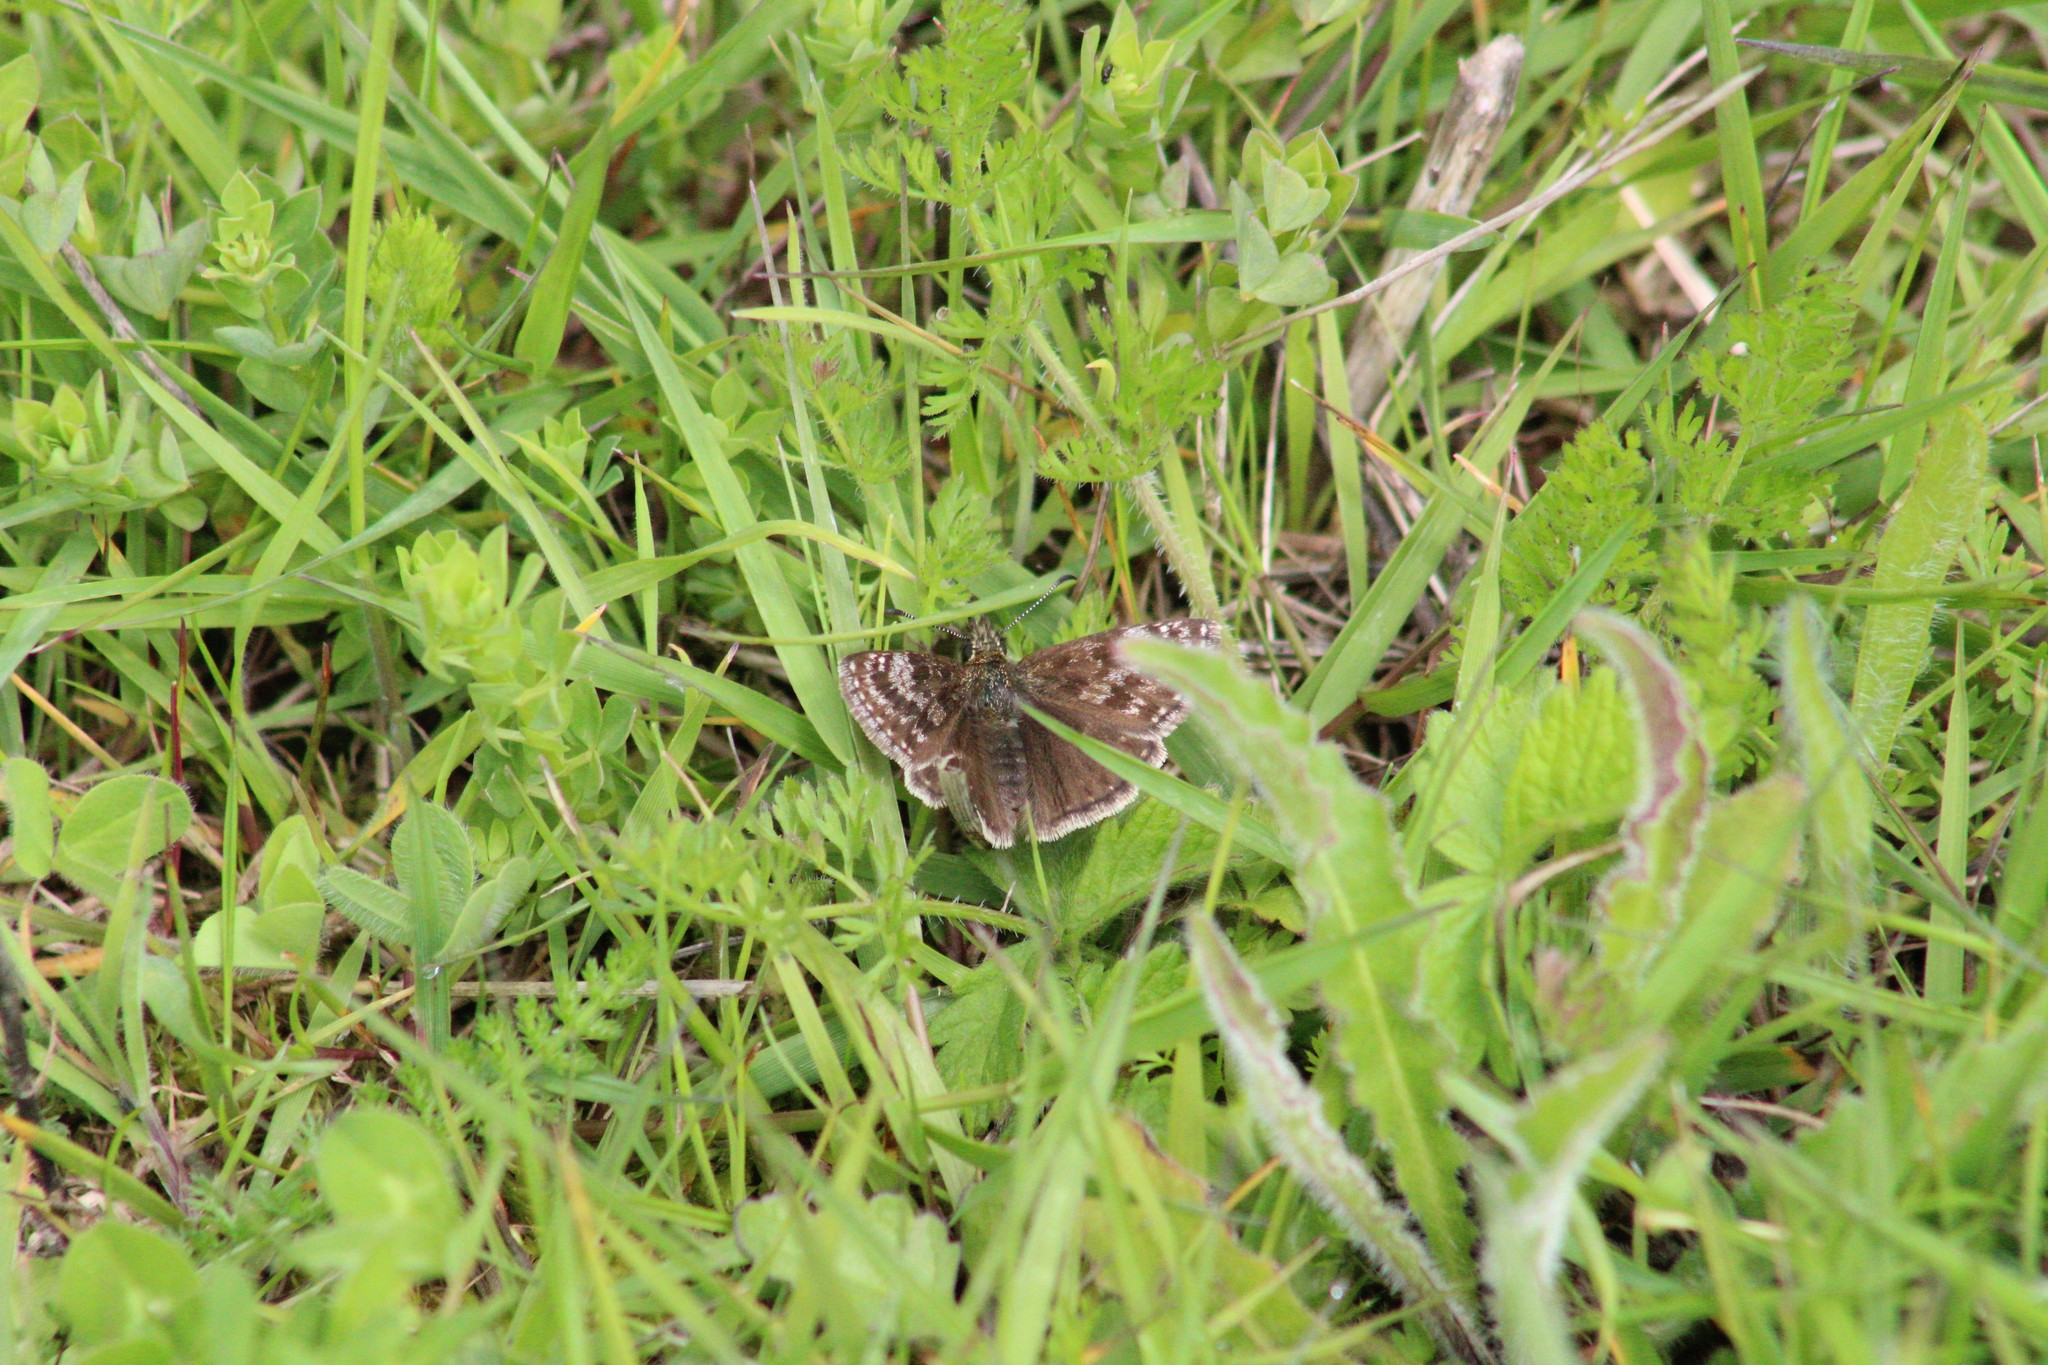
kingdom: Animalia
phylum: Arthropoda
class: Insecta
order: Lepidoptera
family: Hesperiidae
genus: Erynnis
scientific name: Erynnis tages
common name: Dingy skipper
